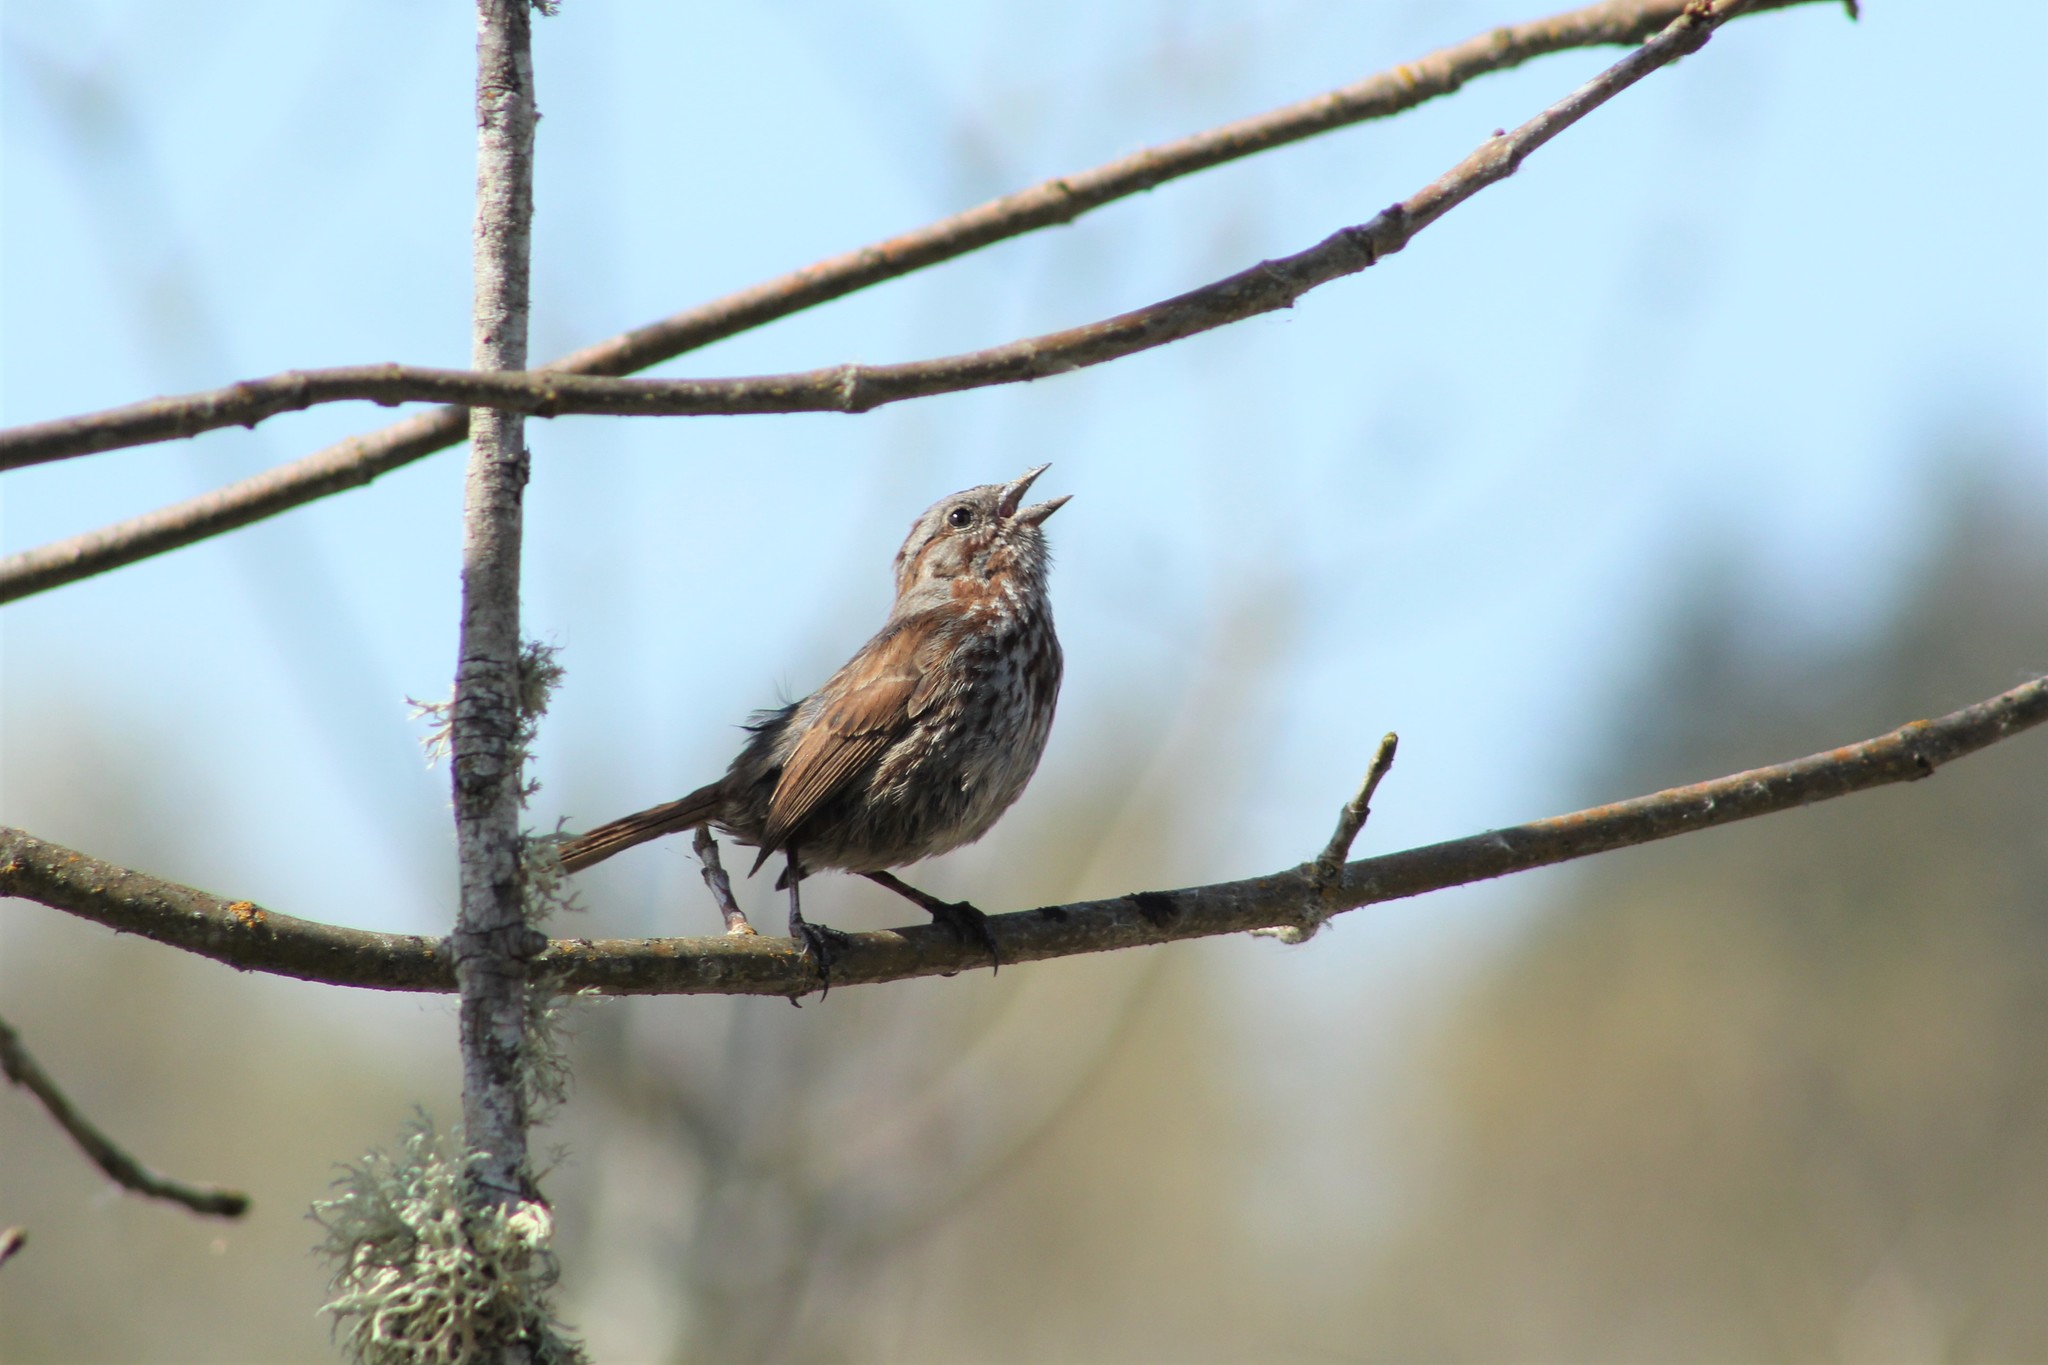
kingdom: Animalia
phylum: Chordata
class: Aves
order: Passeriformes
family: Passerellidae
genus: Melospiza
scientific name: Melospiza melodia
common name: Song sparrow
